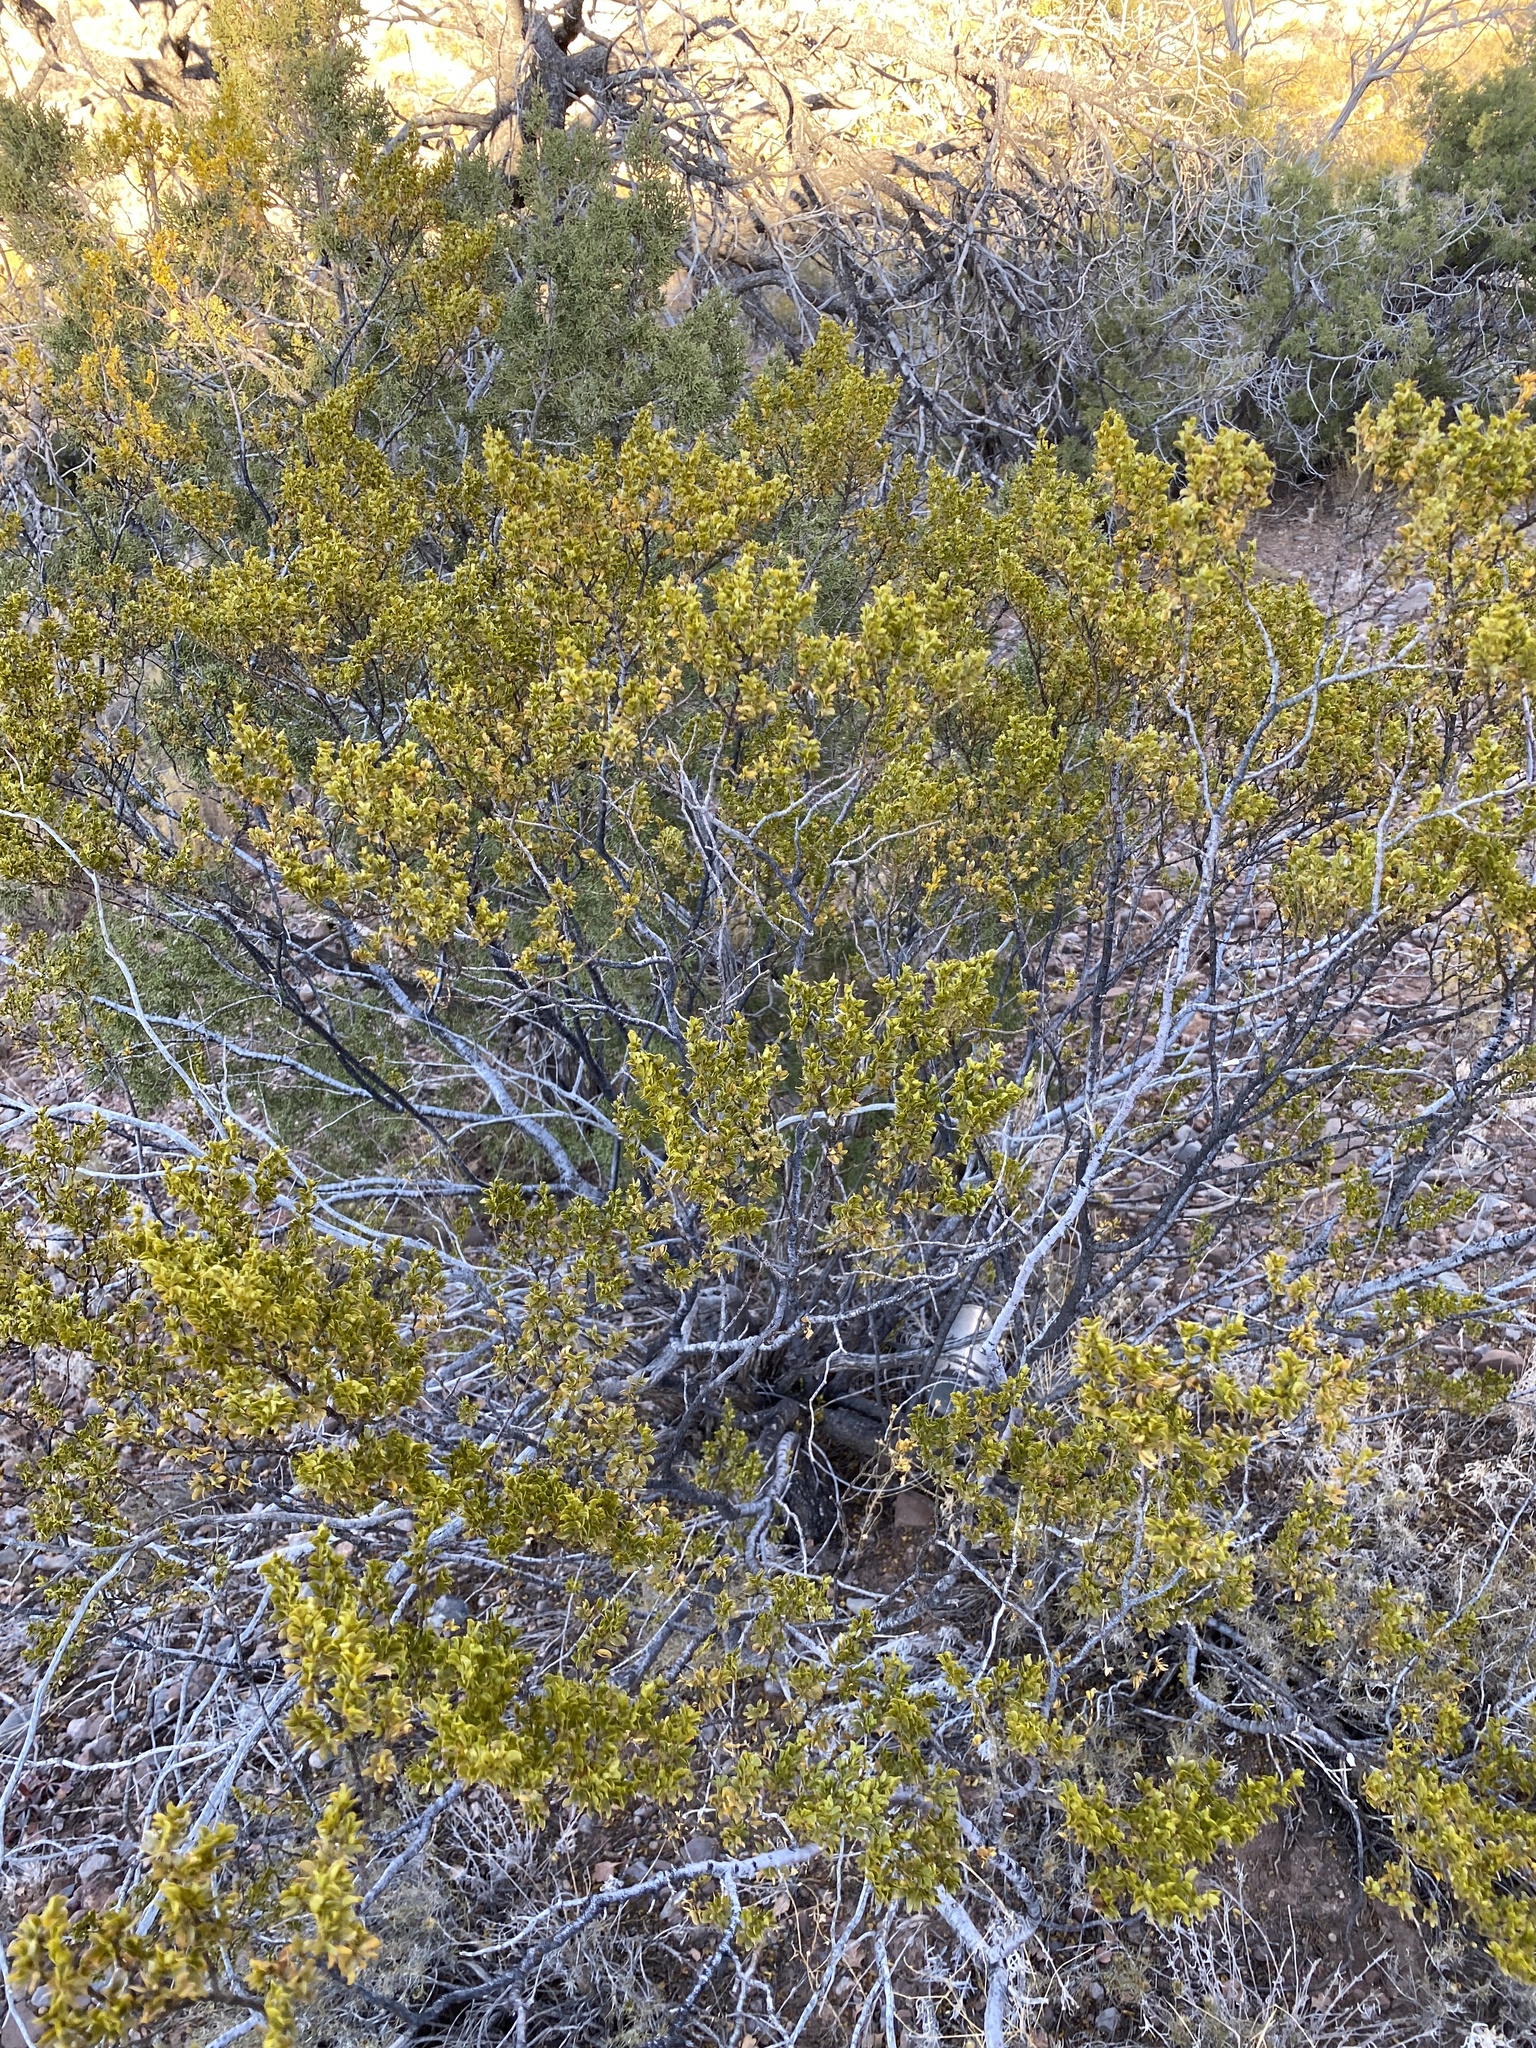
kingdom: Plantae
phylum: Tracheophyta
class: Magnoliopsida
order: Zygophyllales
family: Zygophyllaceae
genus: Larrea
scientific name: Larrea tridentata
